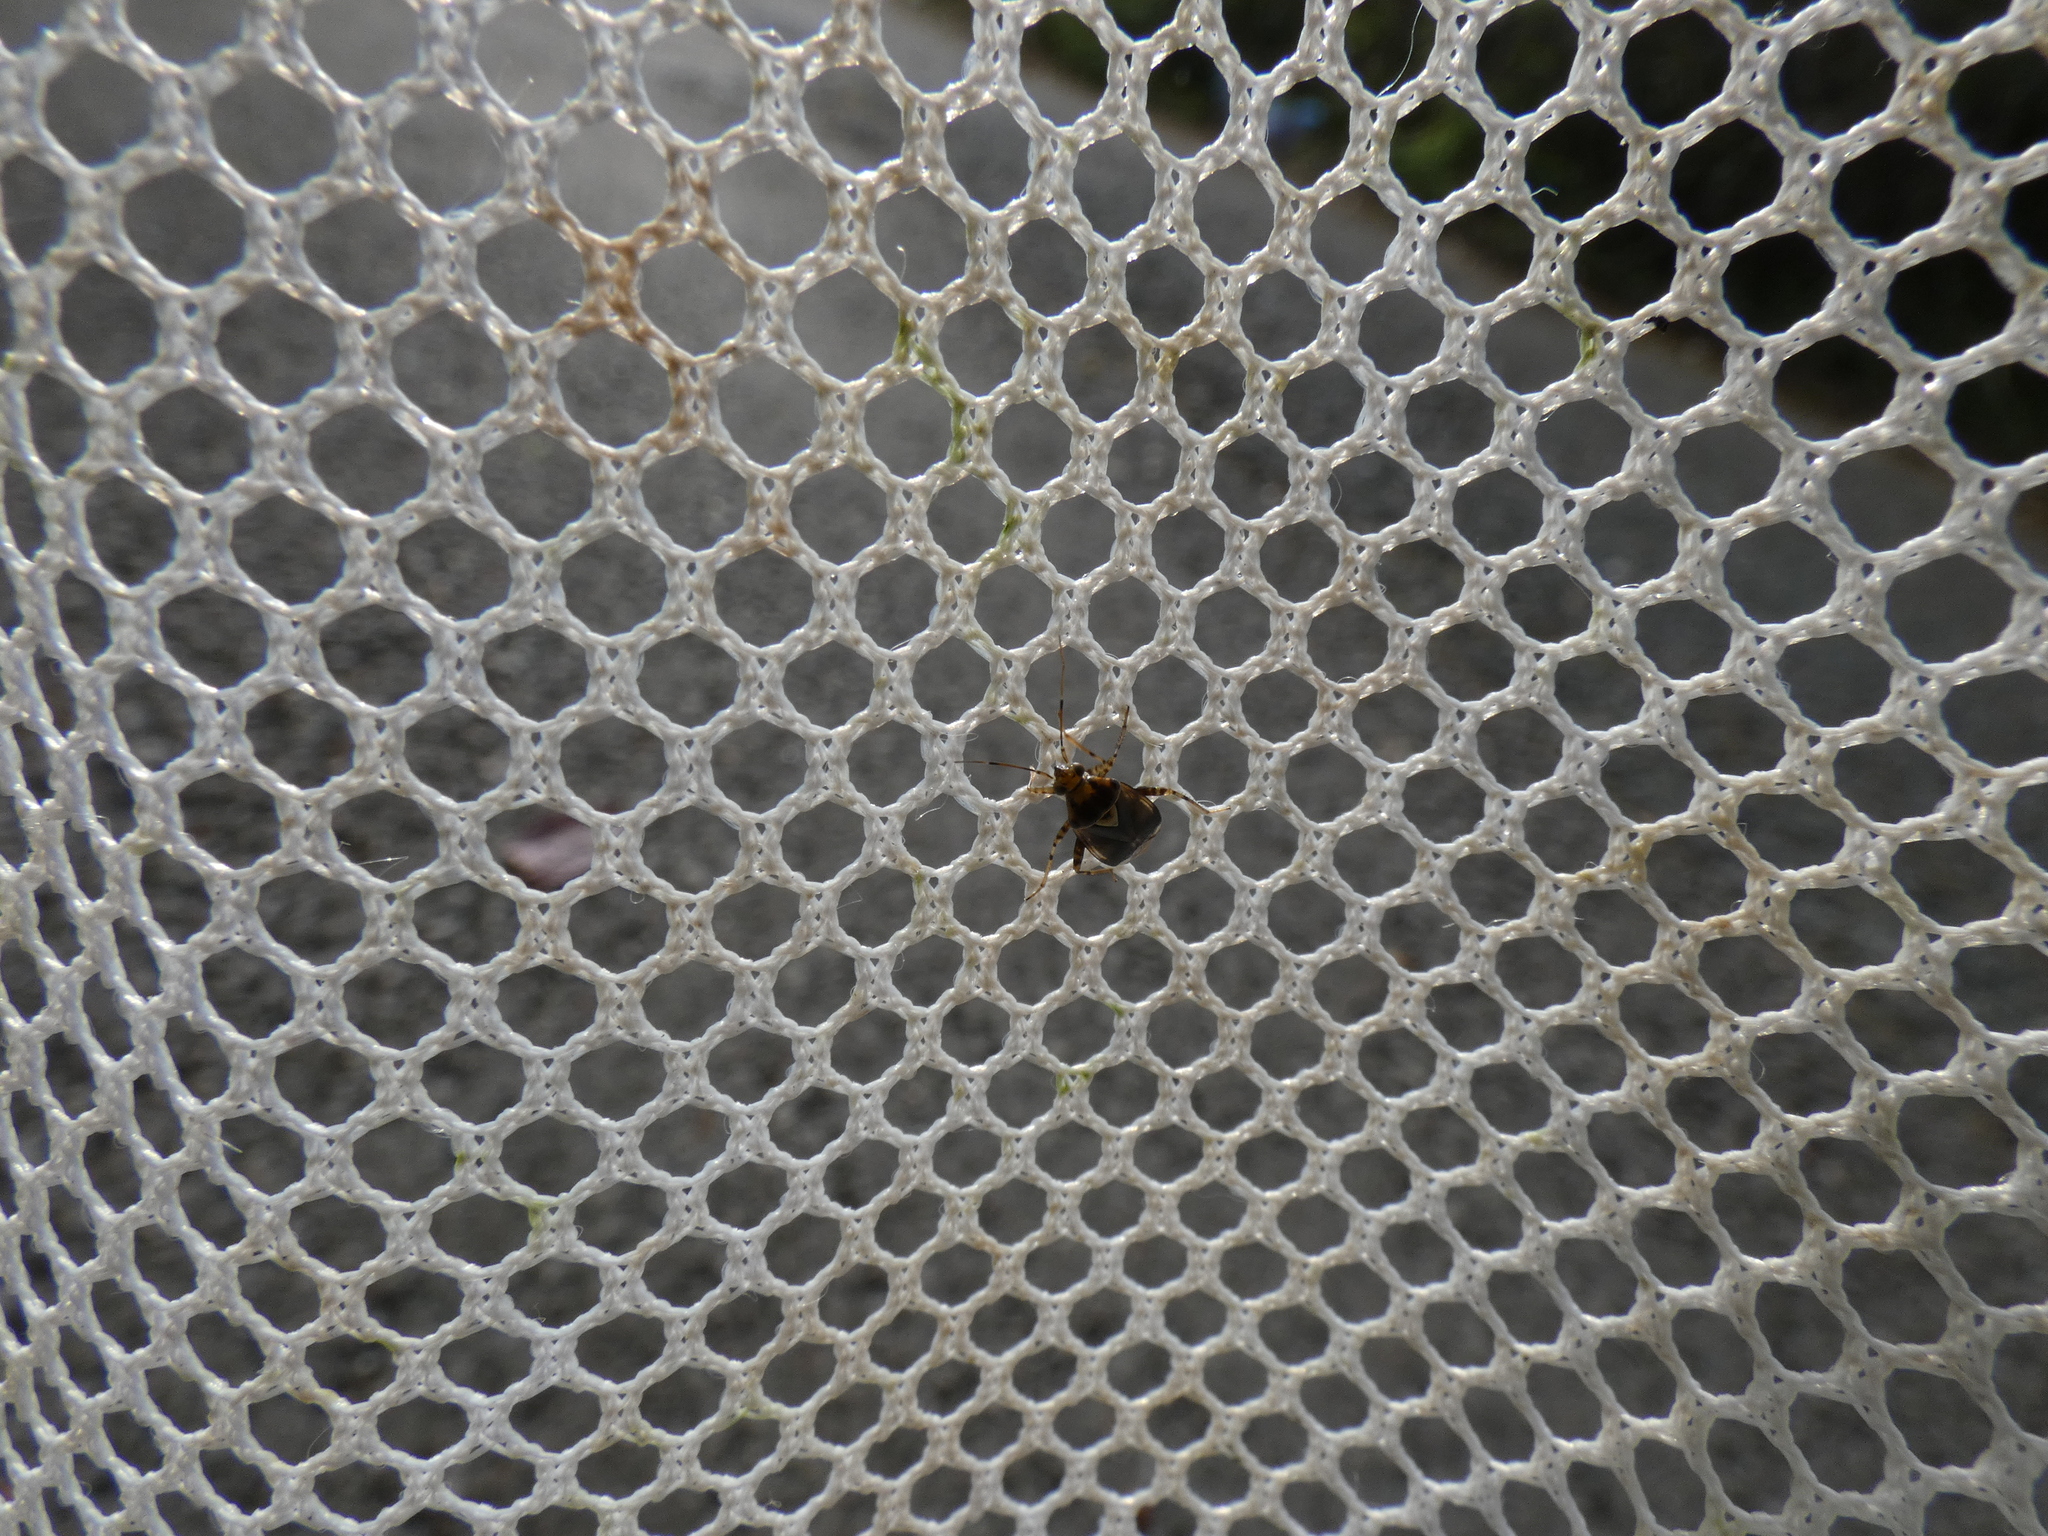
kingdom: Animalia
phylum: Arthropoda
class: Insecta
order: Hemiptera
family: Miridae
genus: Liocoris
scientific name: Liocoris tripustulatus
